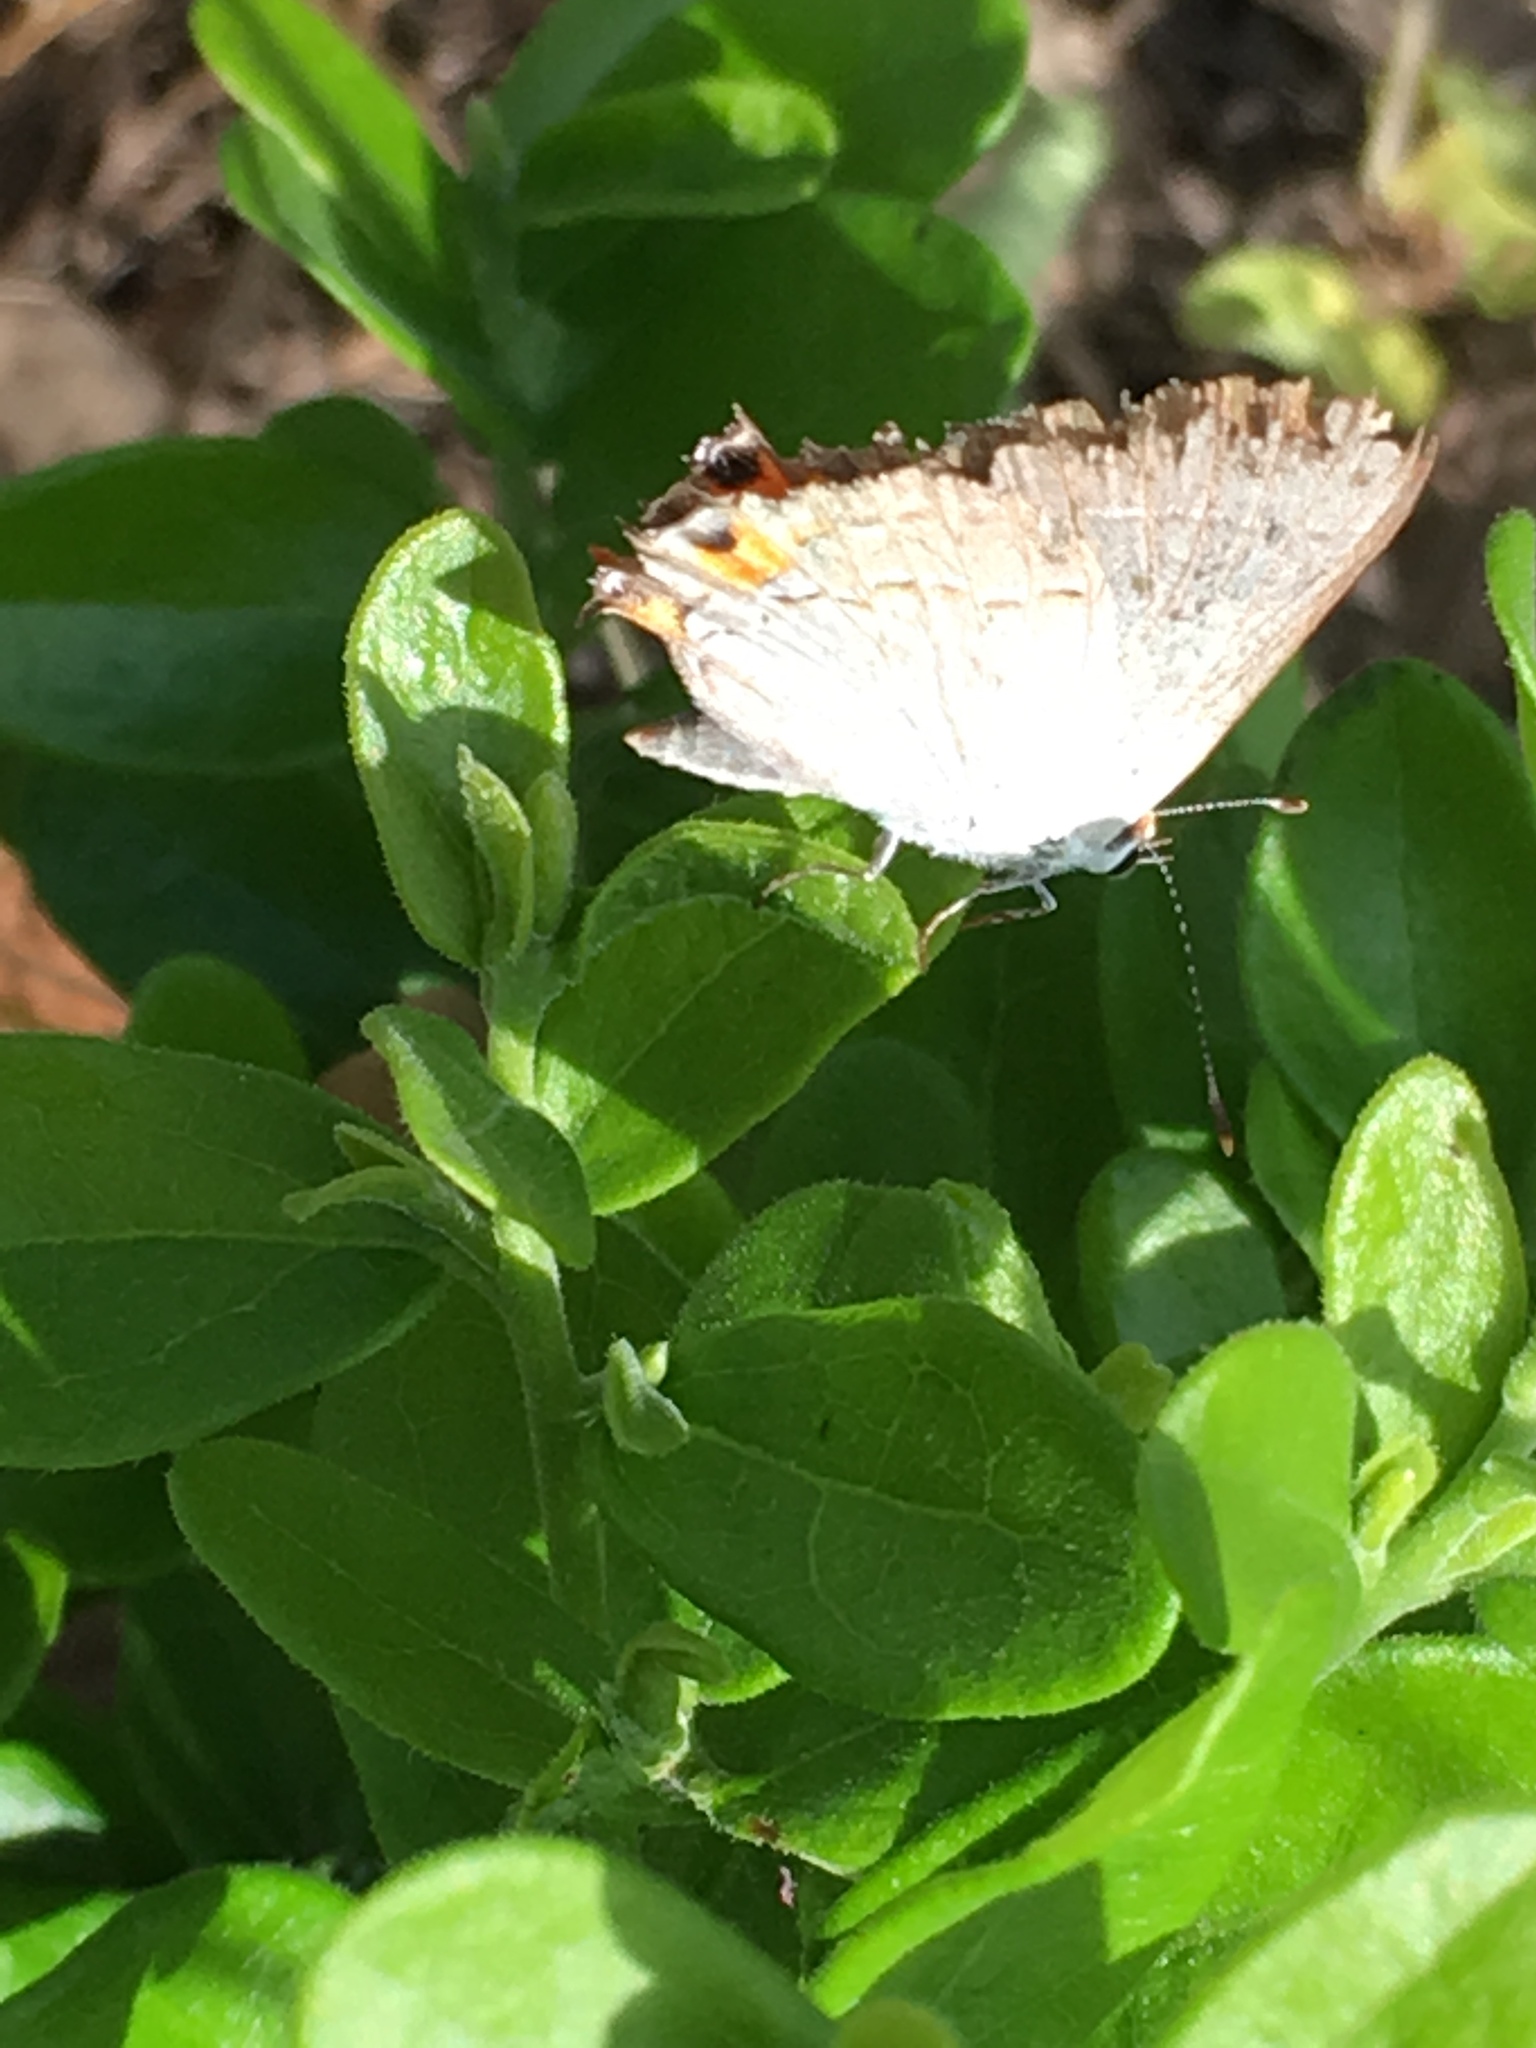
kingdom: Animalia
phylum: Arthropoda
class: Insecta
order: Lepidoptera
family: Lycaenidae
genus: Strymon
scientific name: Strymon melinus
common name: Gray hairstreak
